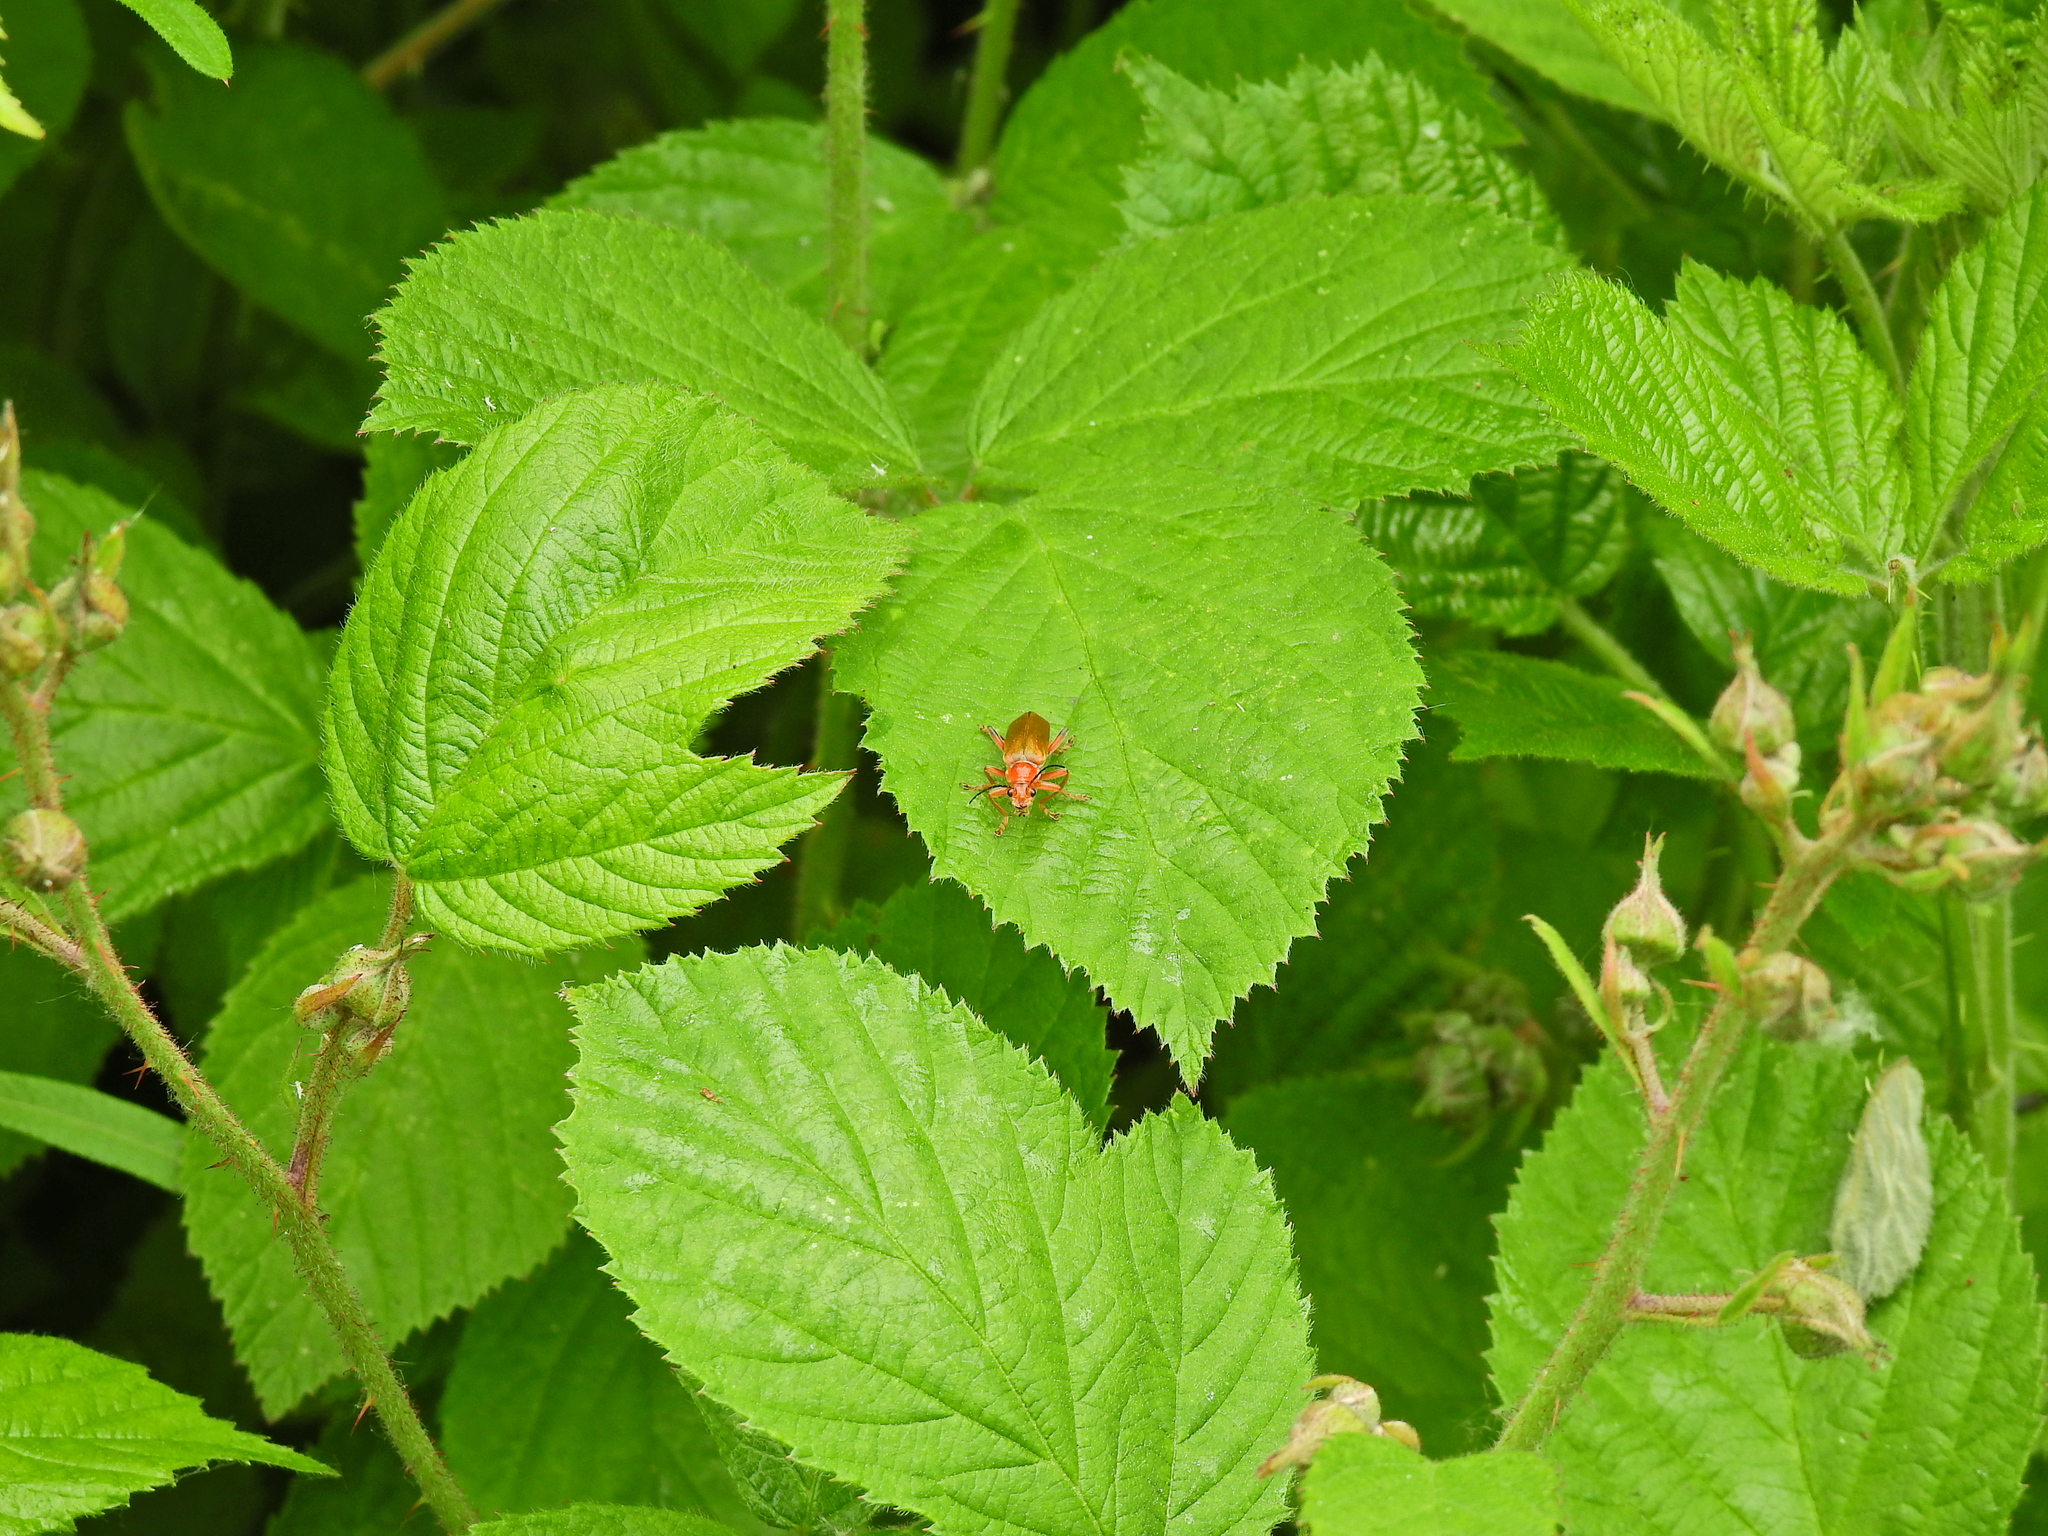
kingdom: Animalia
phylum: Arthropoda
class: Insecta
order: Coleoptera
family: Cantharidae
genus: Cantharis
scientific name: Cantharis livida
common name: Livid soldier beetle
